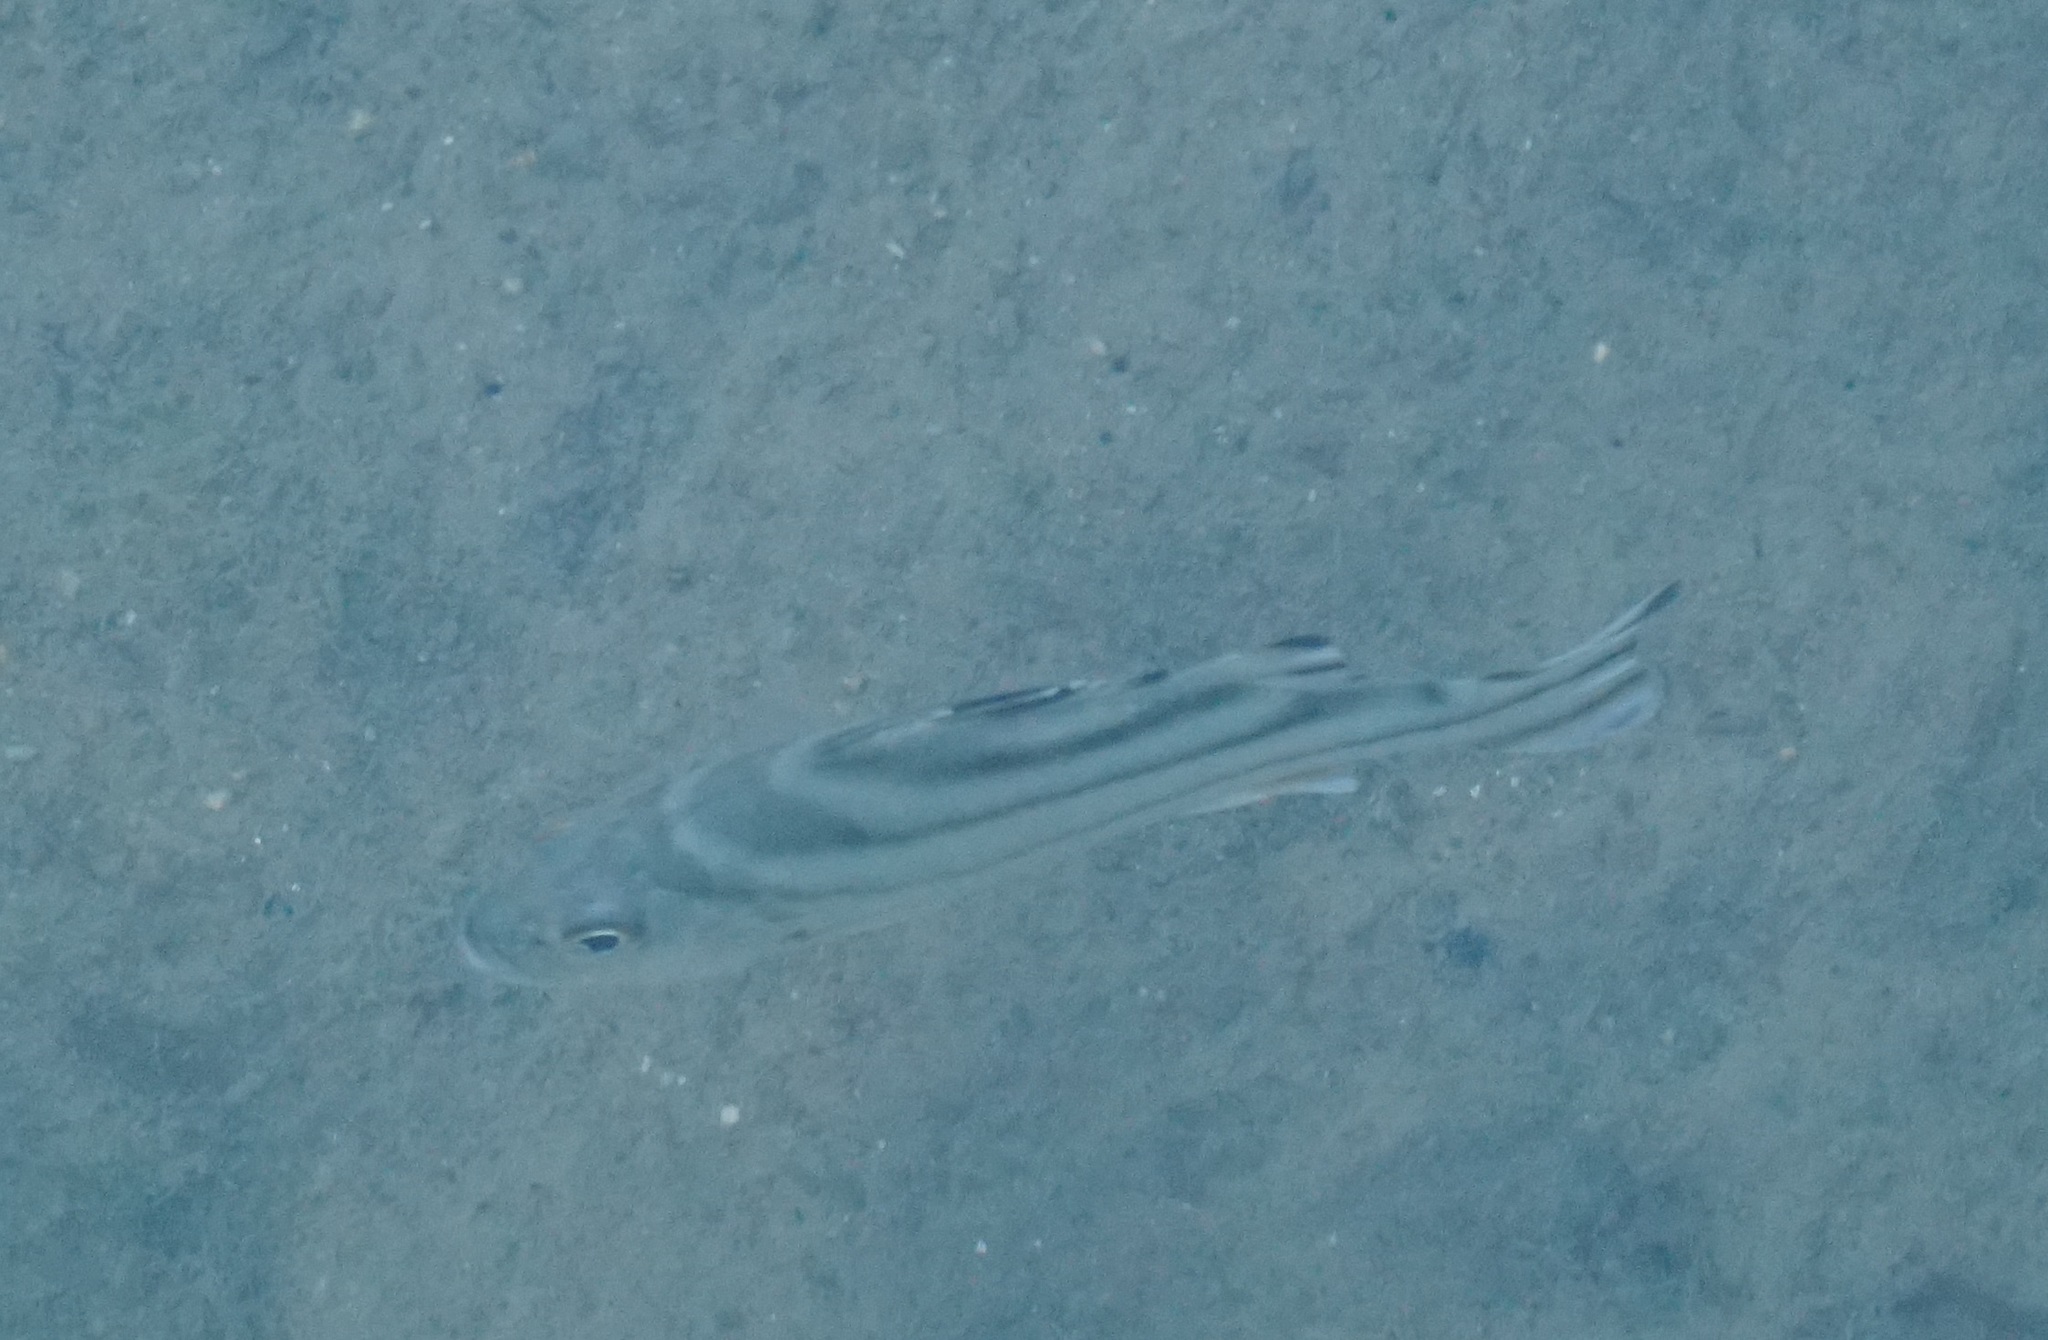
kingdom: Animalia
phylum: Chordata
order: Perciformes
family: Terapontidae
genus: Terapon
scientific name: Terapon jarbua
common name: Jarbua terapon
